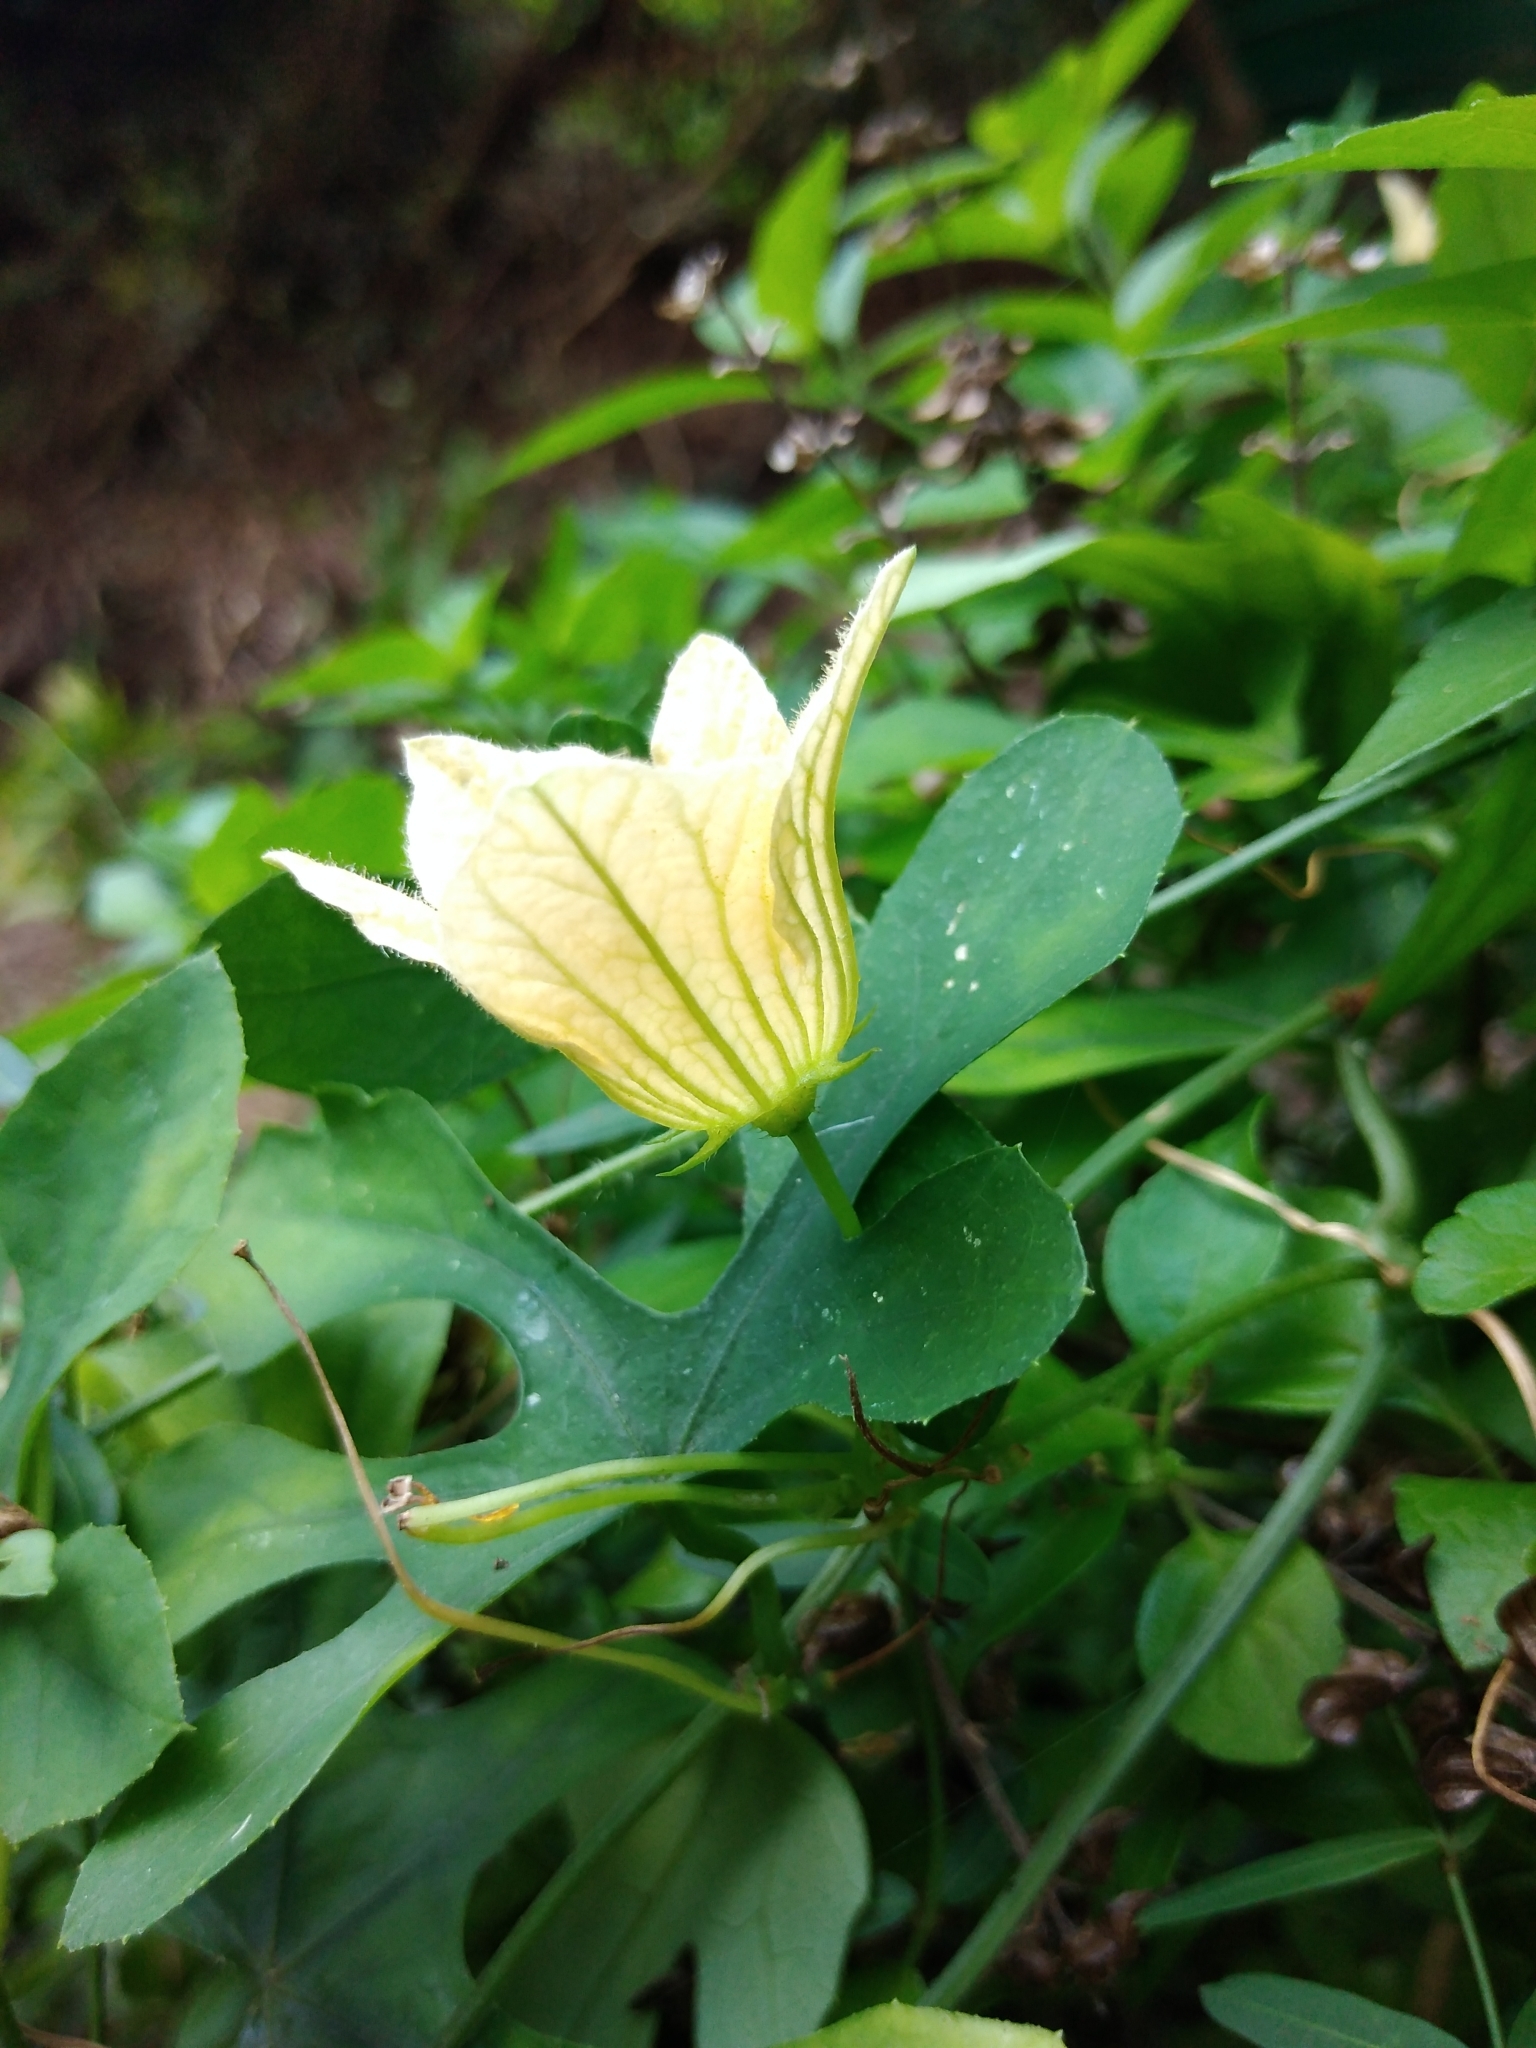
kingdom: Plantae
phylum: Tracheophyta
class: Magnoliopsida
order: Cucurbitales
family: Cucurbitaceae
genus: Coccinia
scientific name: Coccinia rehmannii
